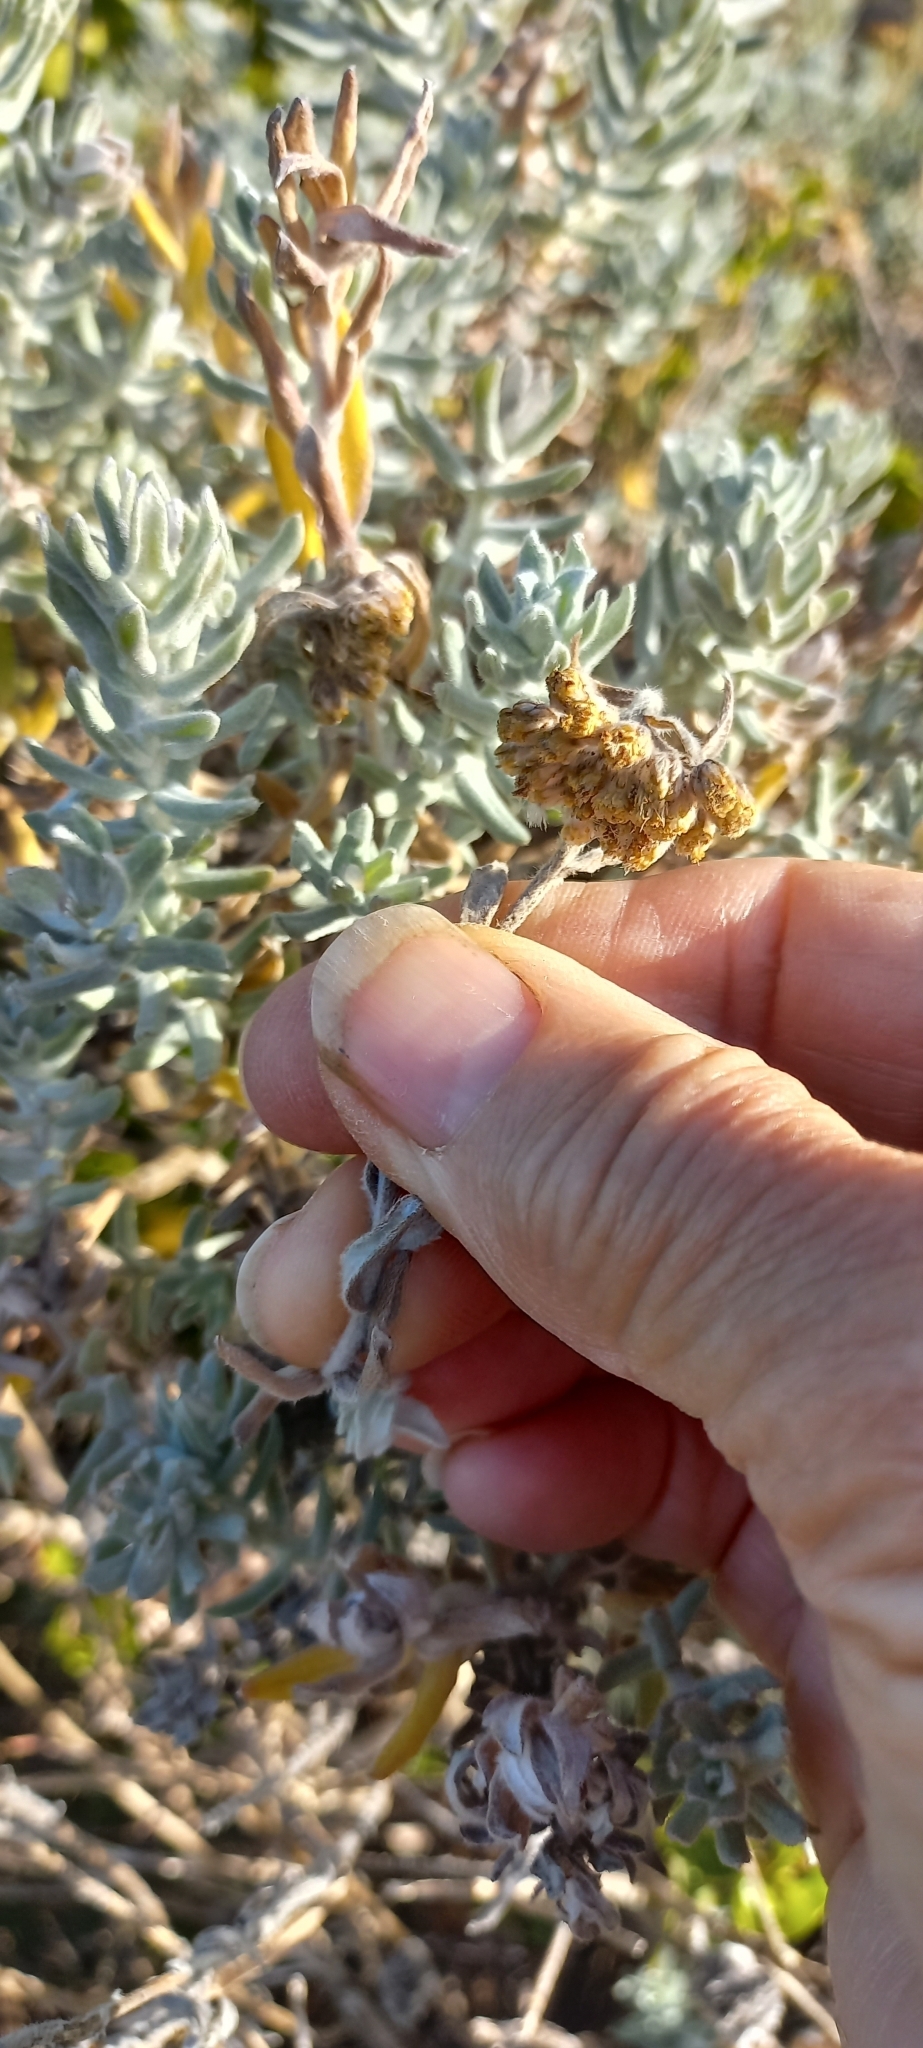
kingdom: Plantae
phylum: Tracheophyta
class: Magnoliopsida
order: Asterales
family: Asteraceae
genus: Eriocephalus
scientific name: Eriocephalus racemosus
